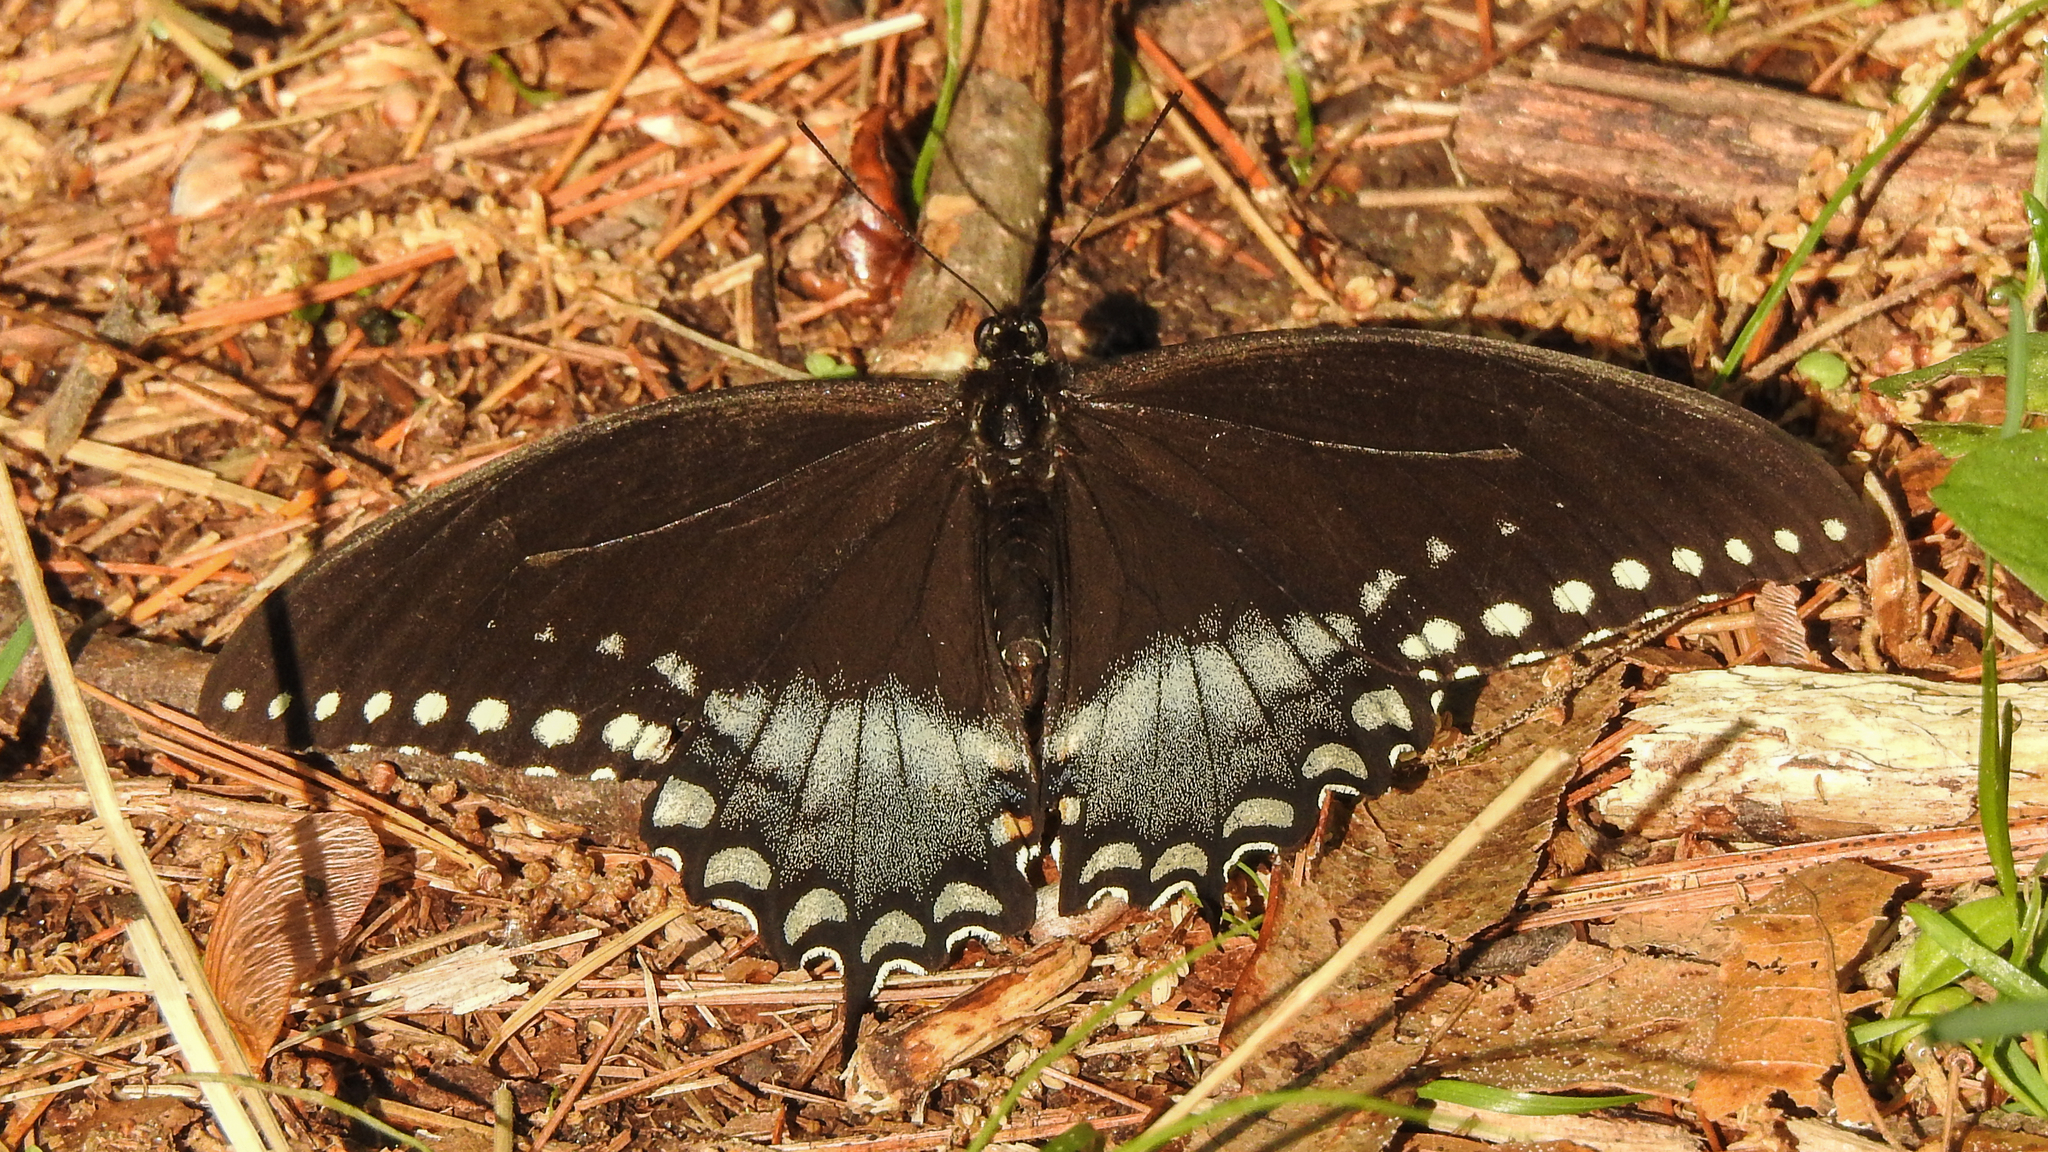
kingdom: Animalia
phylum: Arthropoda
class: Insecta
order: Lepidoptera
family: Papilionidae
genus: Papilio
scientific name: Papilio troilus
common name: Spicebush swallowtail
